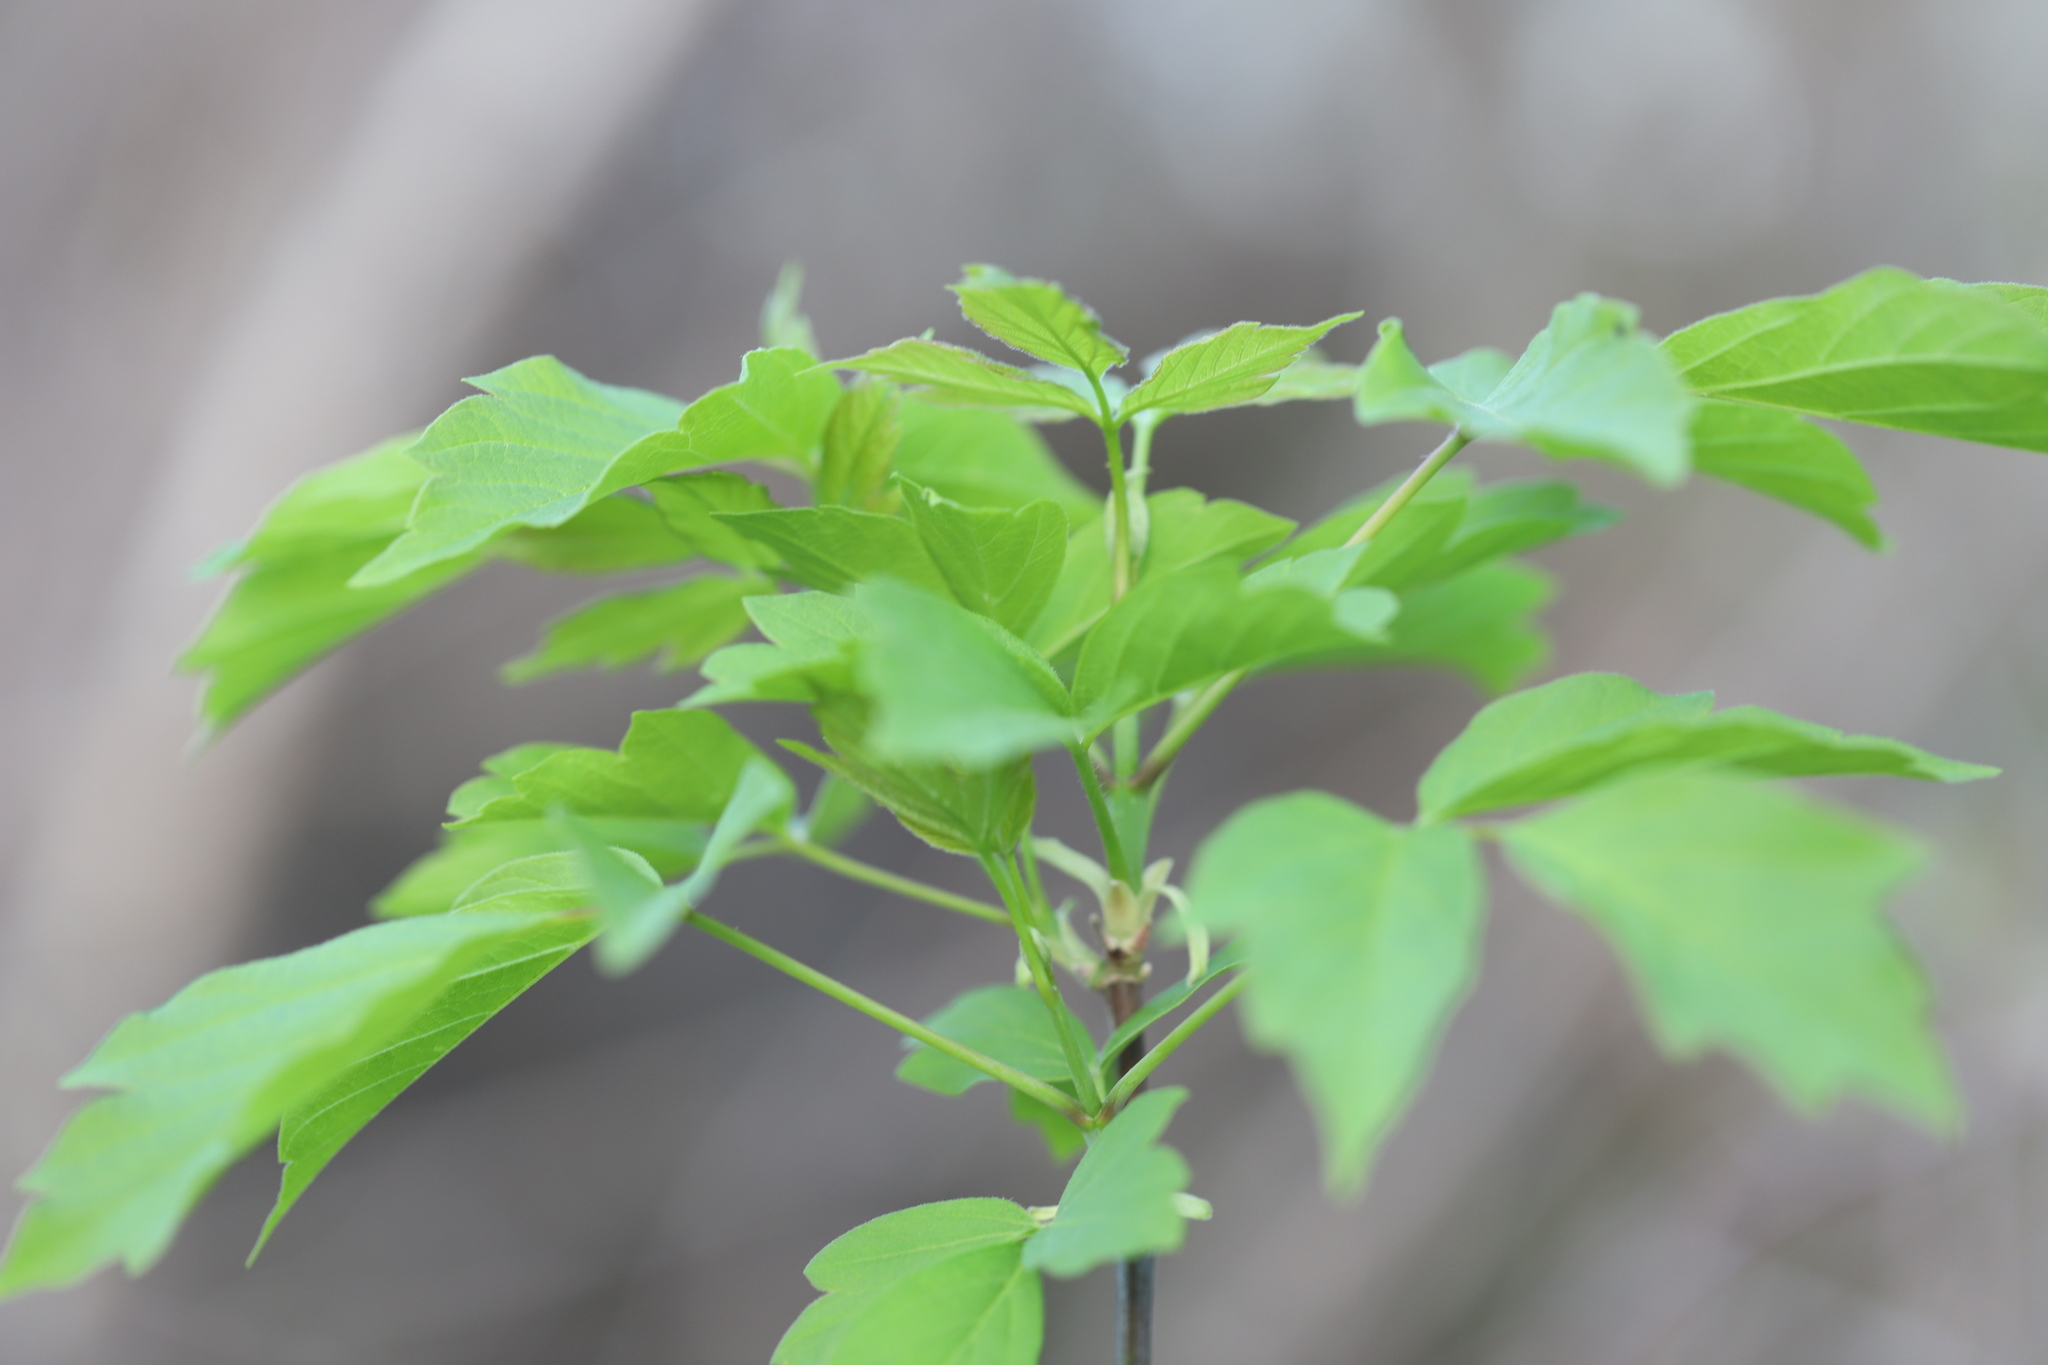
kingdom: Plantae
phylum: Tracheophyta
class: Magnoliopsida
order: Sapindales
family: Sapindaceae
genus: Acer
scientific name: Acer negundo
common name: Ashleaf maple
